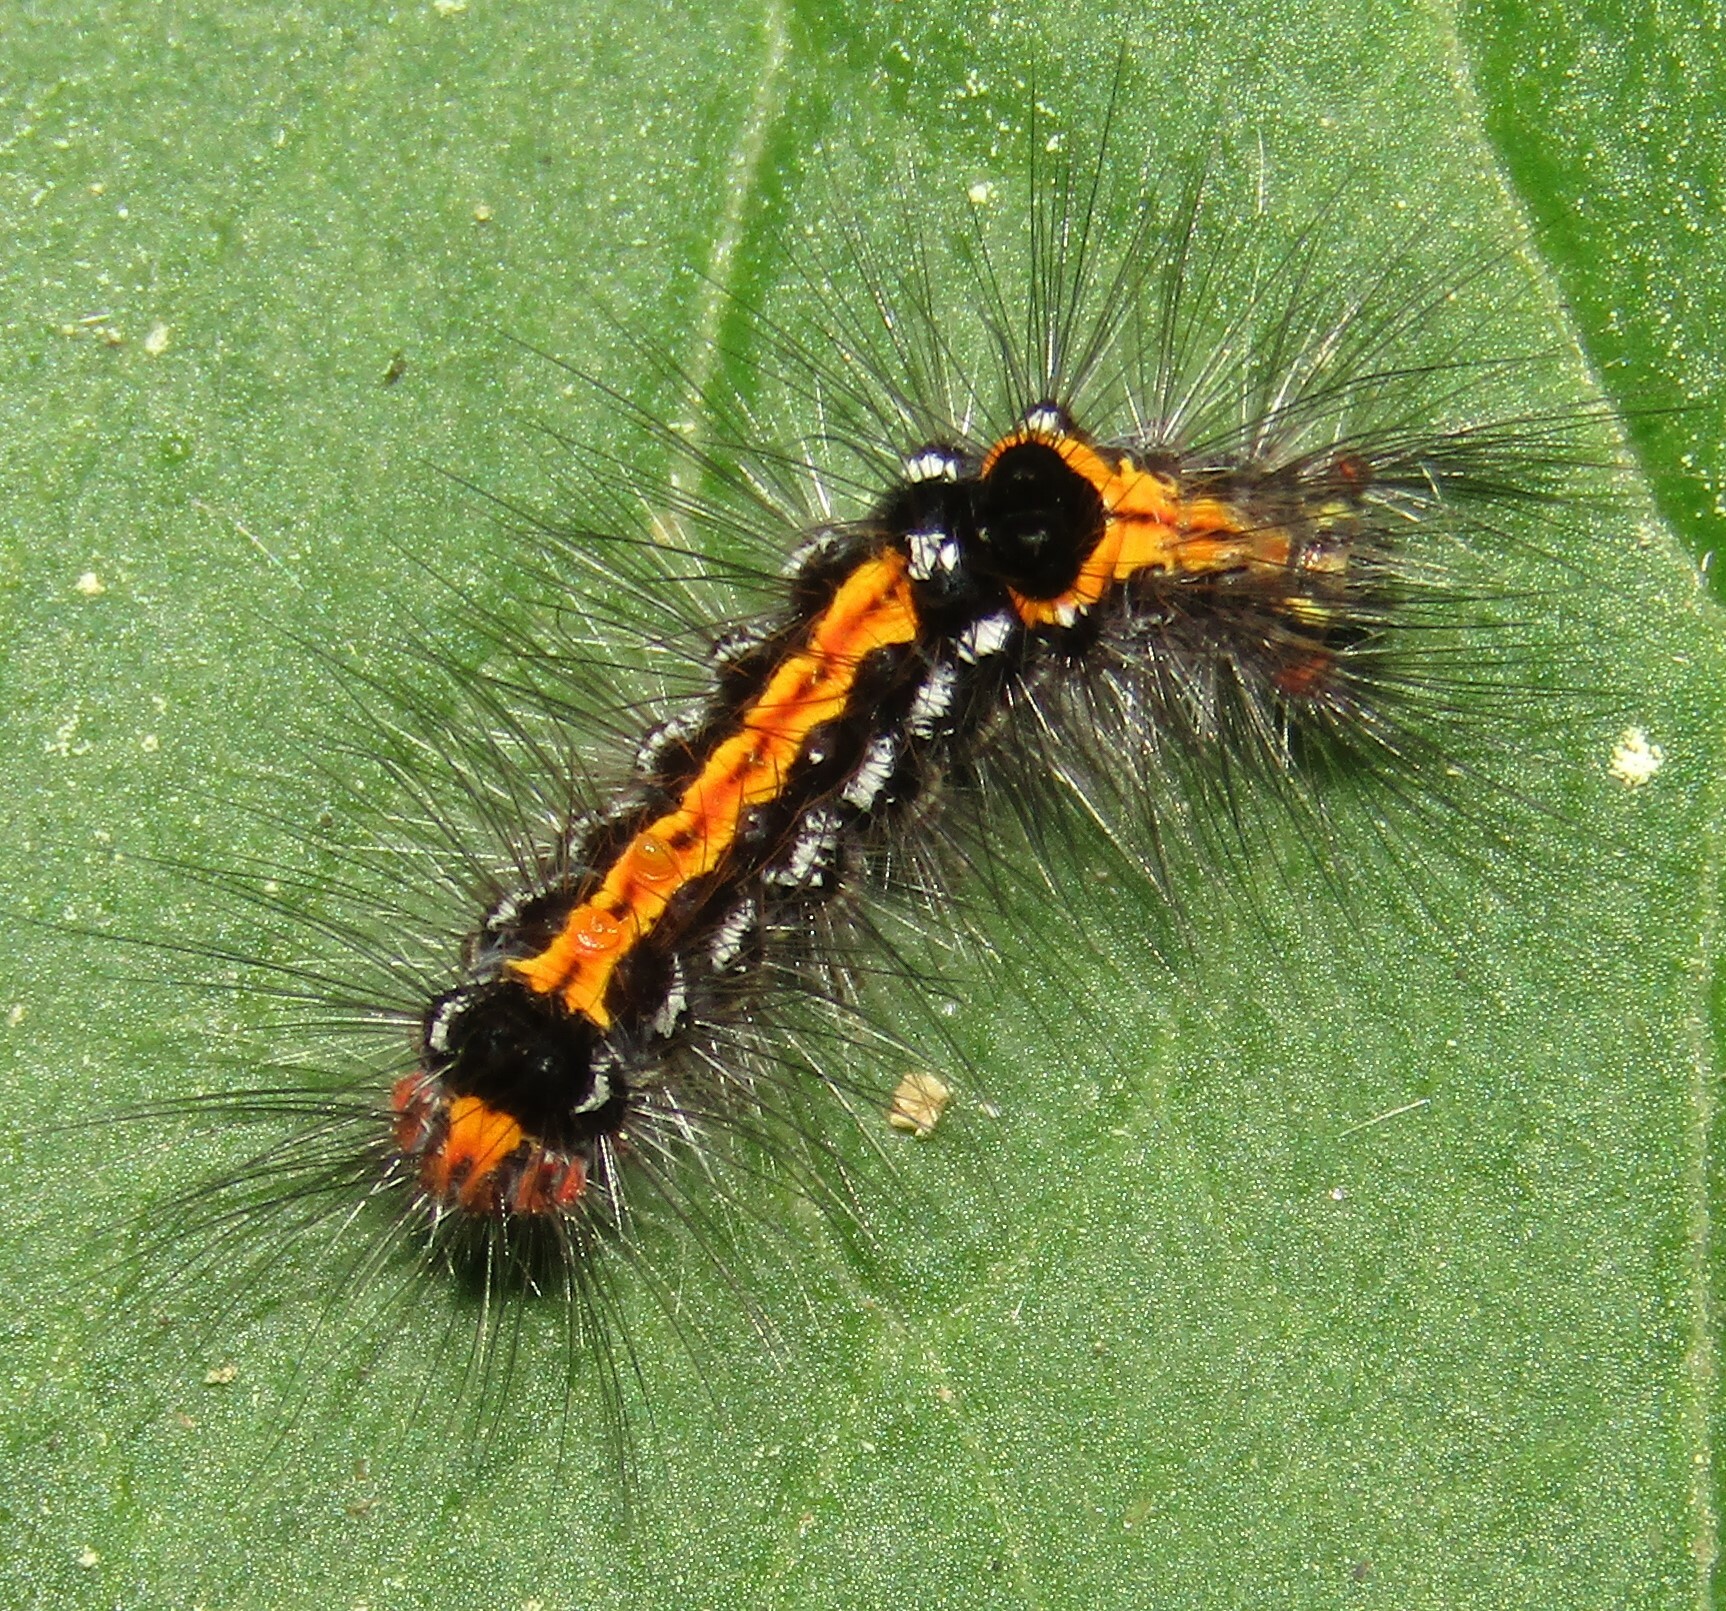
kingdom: Animalia
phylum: Arthropoda
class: Insecta
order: Lepidoptera
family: Erebidae
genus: Sphrageidus
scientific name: Sphrageidus similis
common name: Yellow-tail
